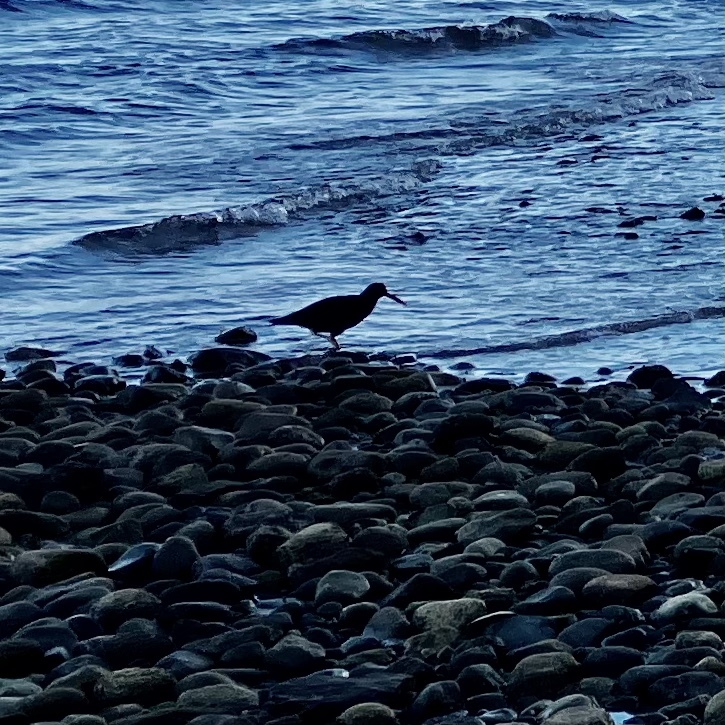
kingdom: Animalia
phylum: Chordata
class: Aves
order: Charadriiformes
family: Haematopodidae
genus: Haematopus
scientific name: Haematopus bachmani
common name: Black oystercatcher
